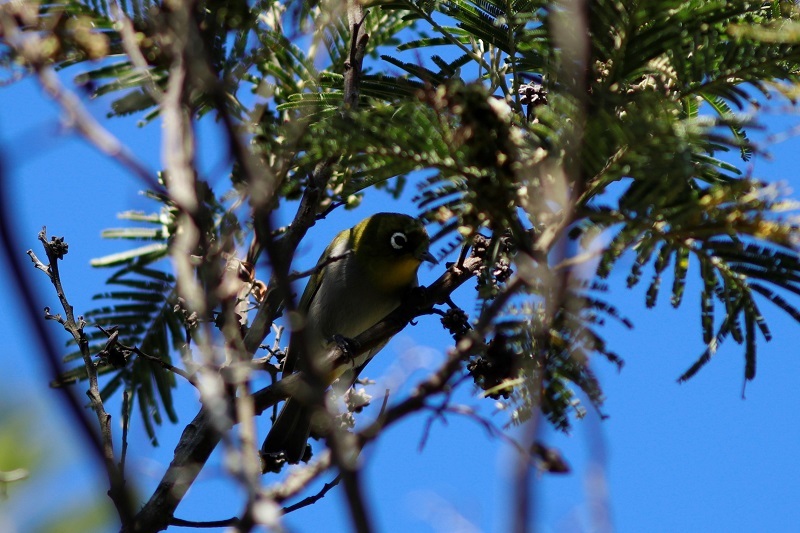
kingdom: Animalia
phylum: Chordata
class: Aves
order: Passeriformes
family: Zosteropidae
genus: Zosterops
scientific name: Zosterops virens
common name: Cape white-eye
